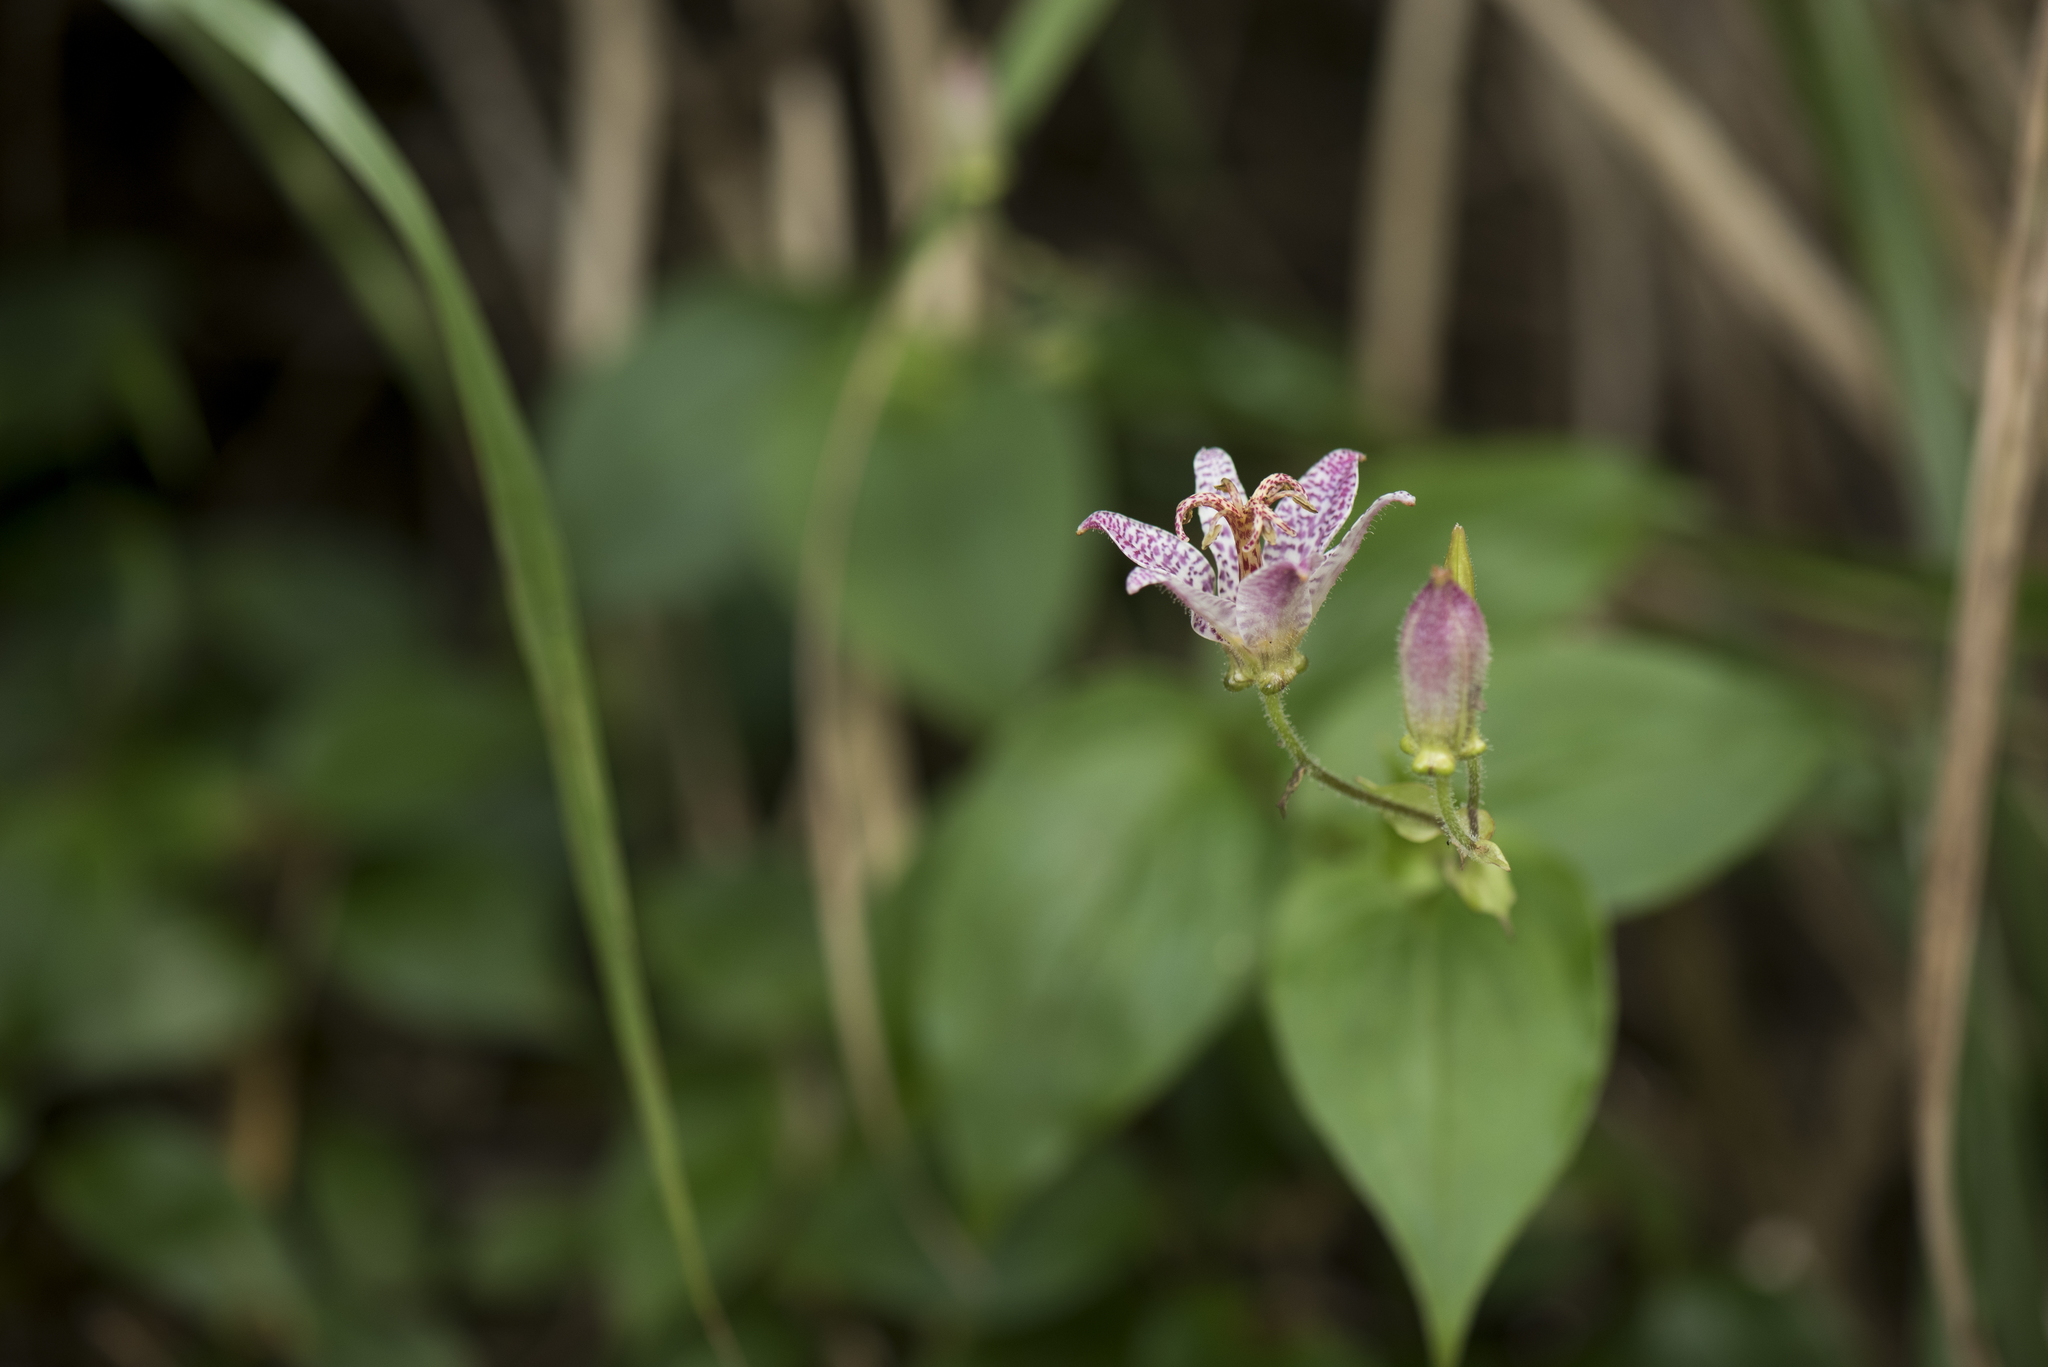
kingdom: Plantae
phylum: Tracheophyta
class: Liliopsida
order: Liliales
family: Liliaceae
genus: Tricyrtis
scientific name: Tricyrtis formosana
